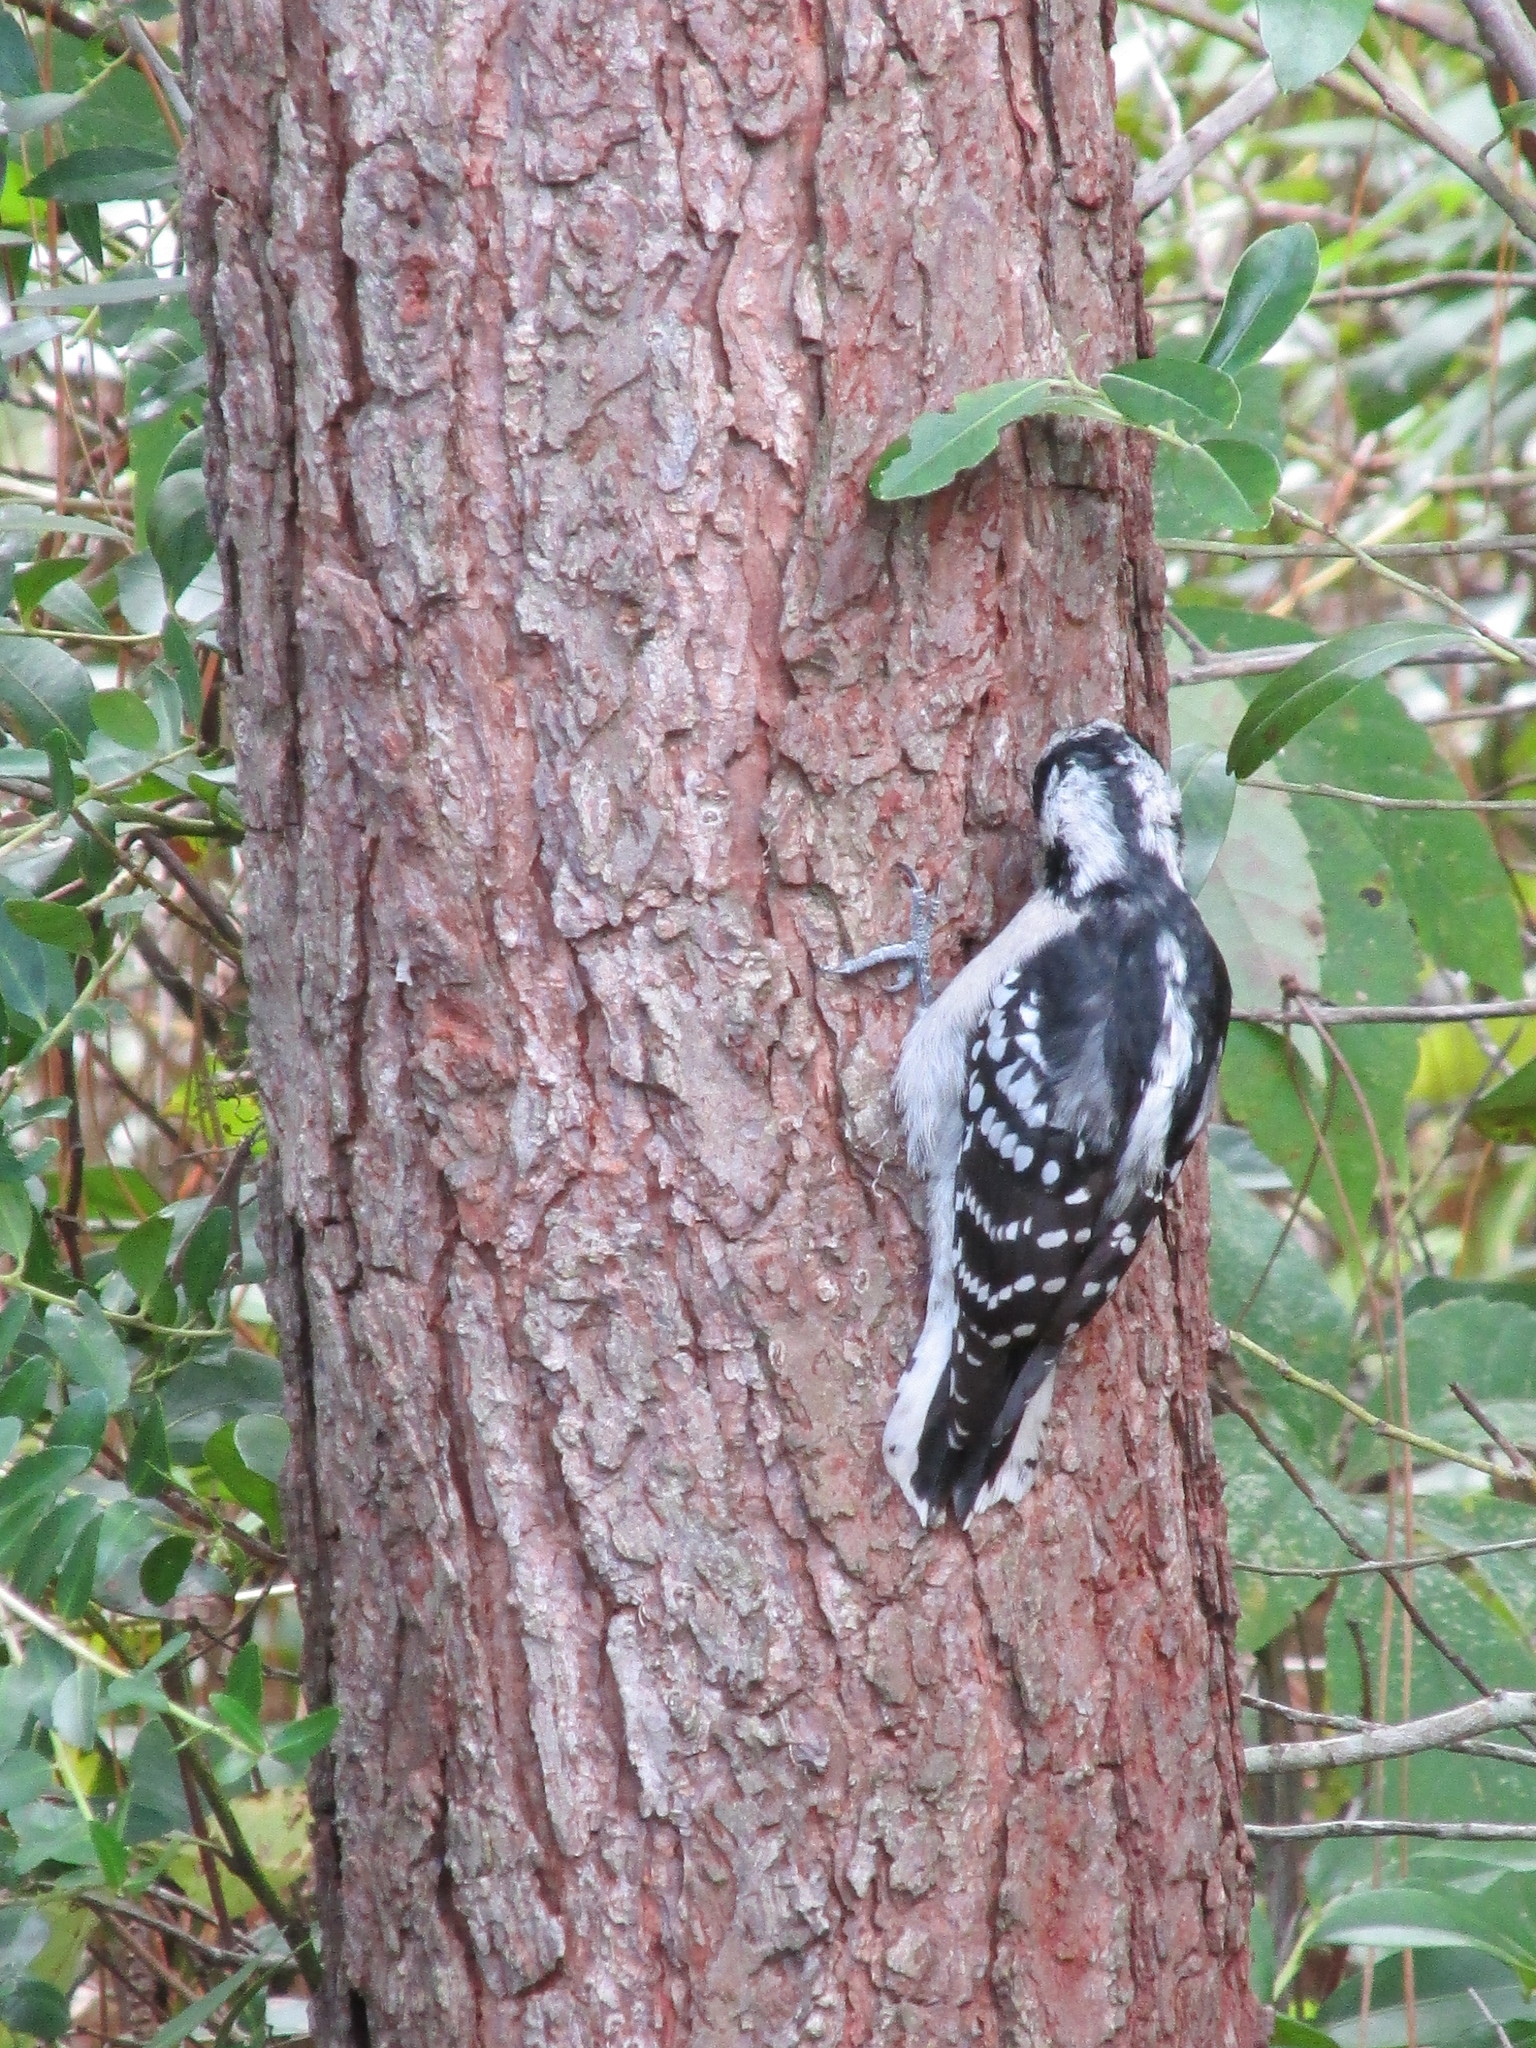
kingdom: Animalia
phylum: Chordata
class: Aves
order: Piciformes
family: Picidae
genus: Dryobates
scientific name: Dryobates pubescens
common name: Downy woodpecker
